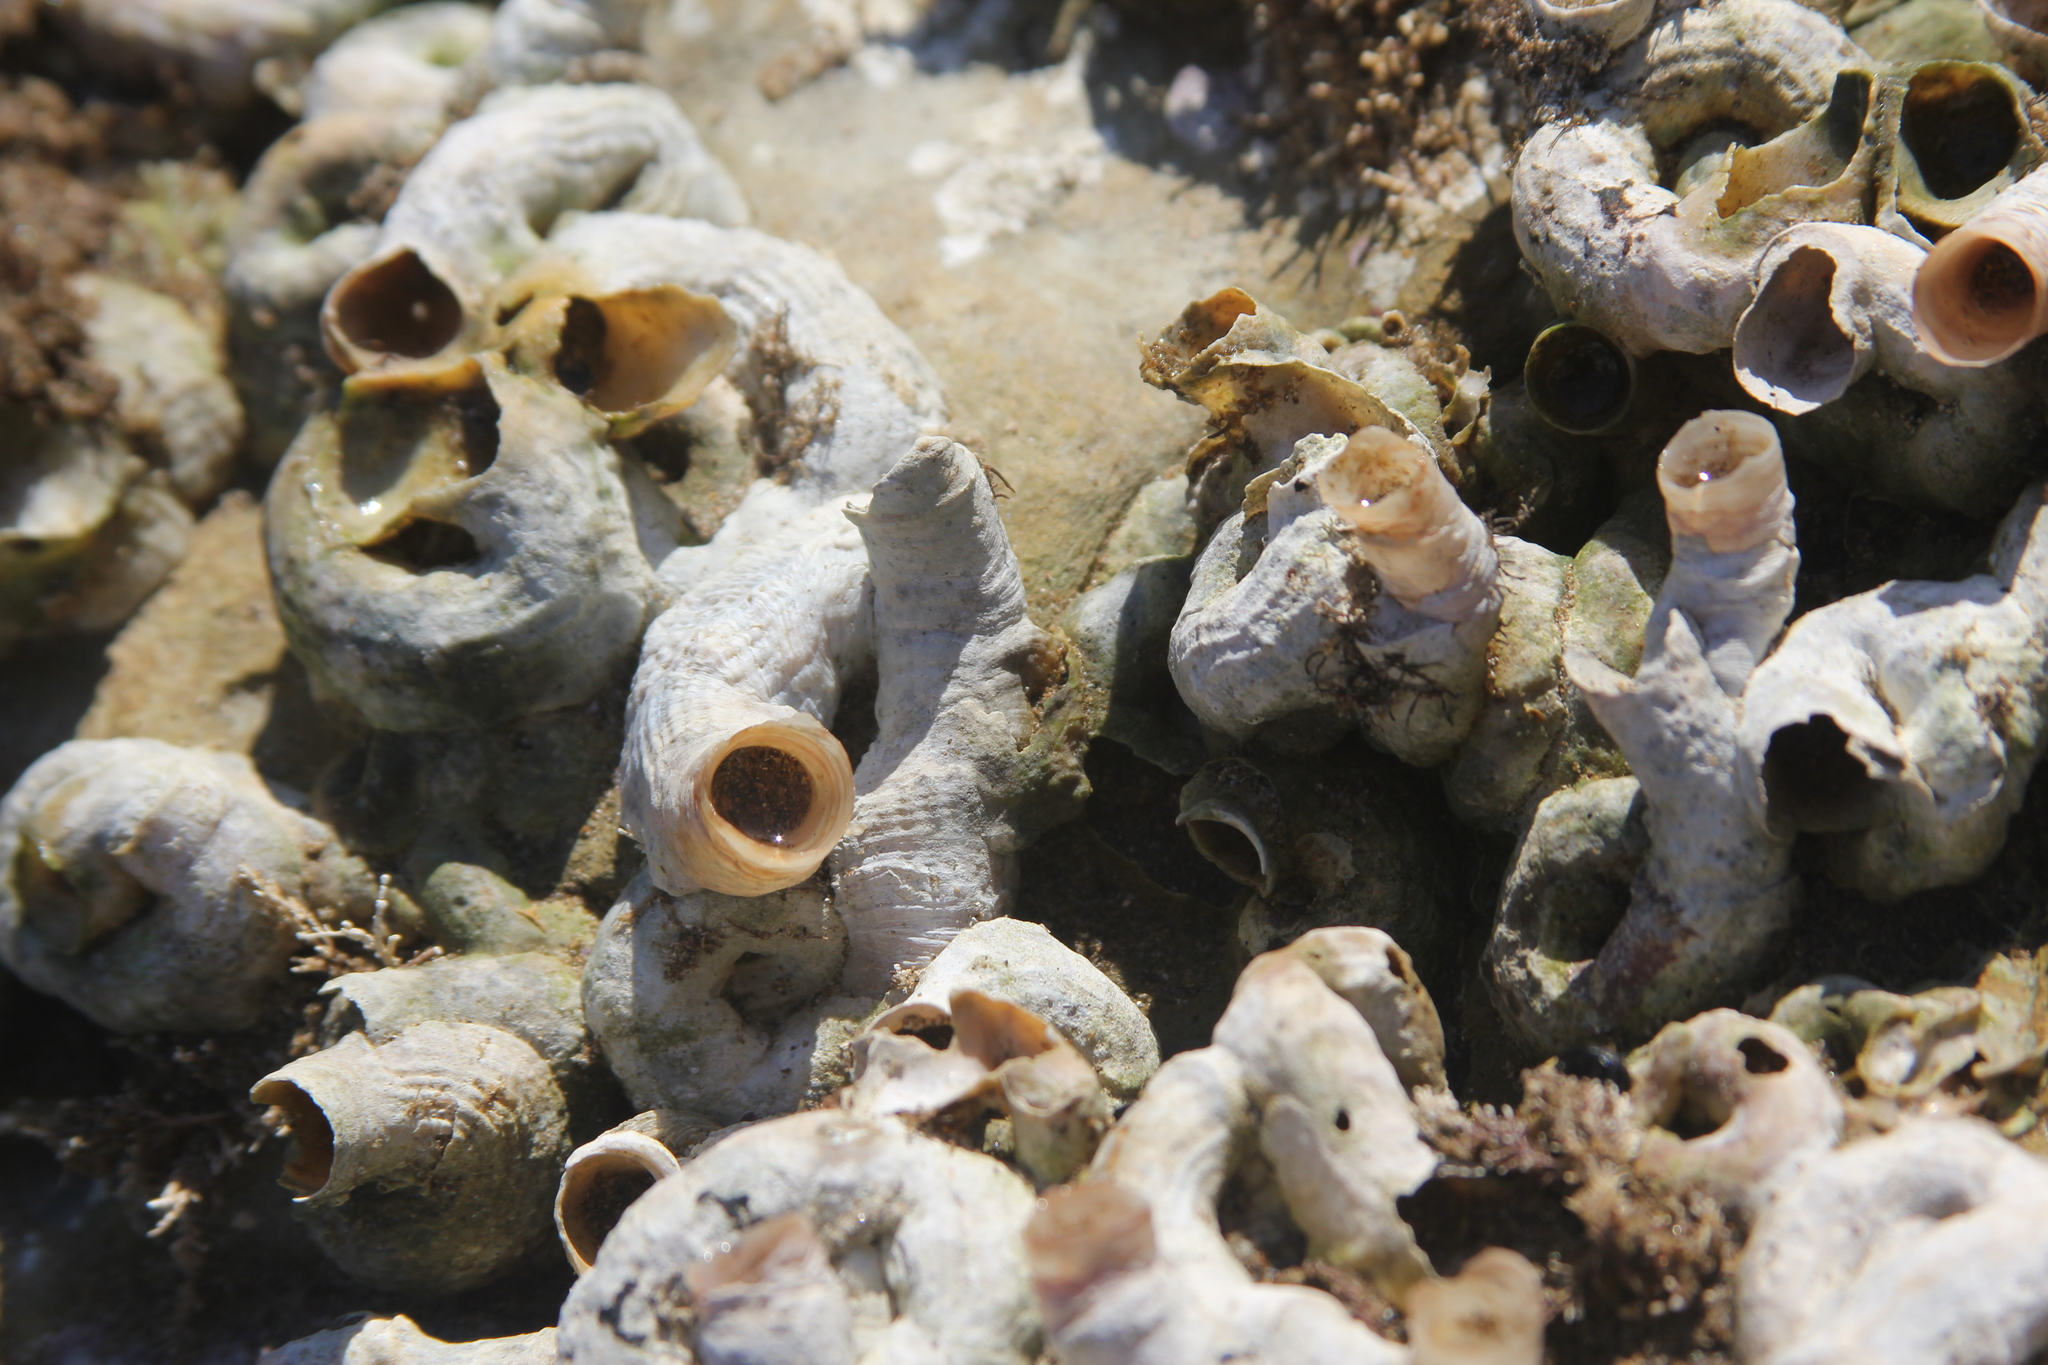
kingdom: Animalia
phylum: Mollusca
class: Gastropoda
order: Littorinimorpha
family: Vermetidae
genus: Thylacodes
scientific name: Thylacodes squamigerus
